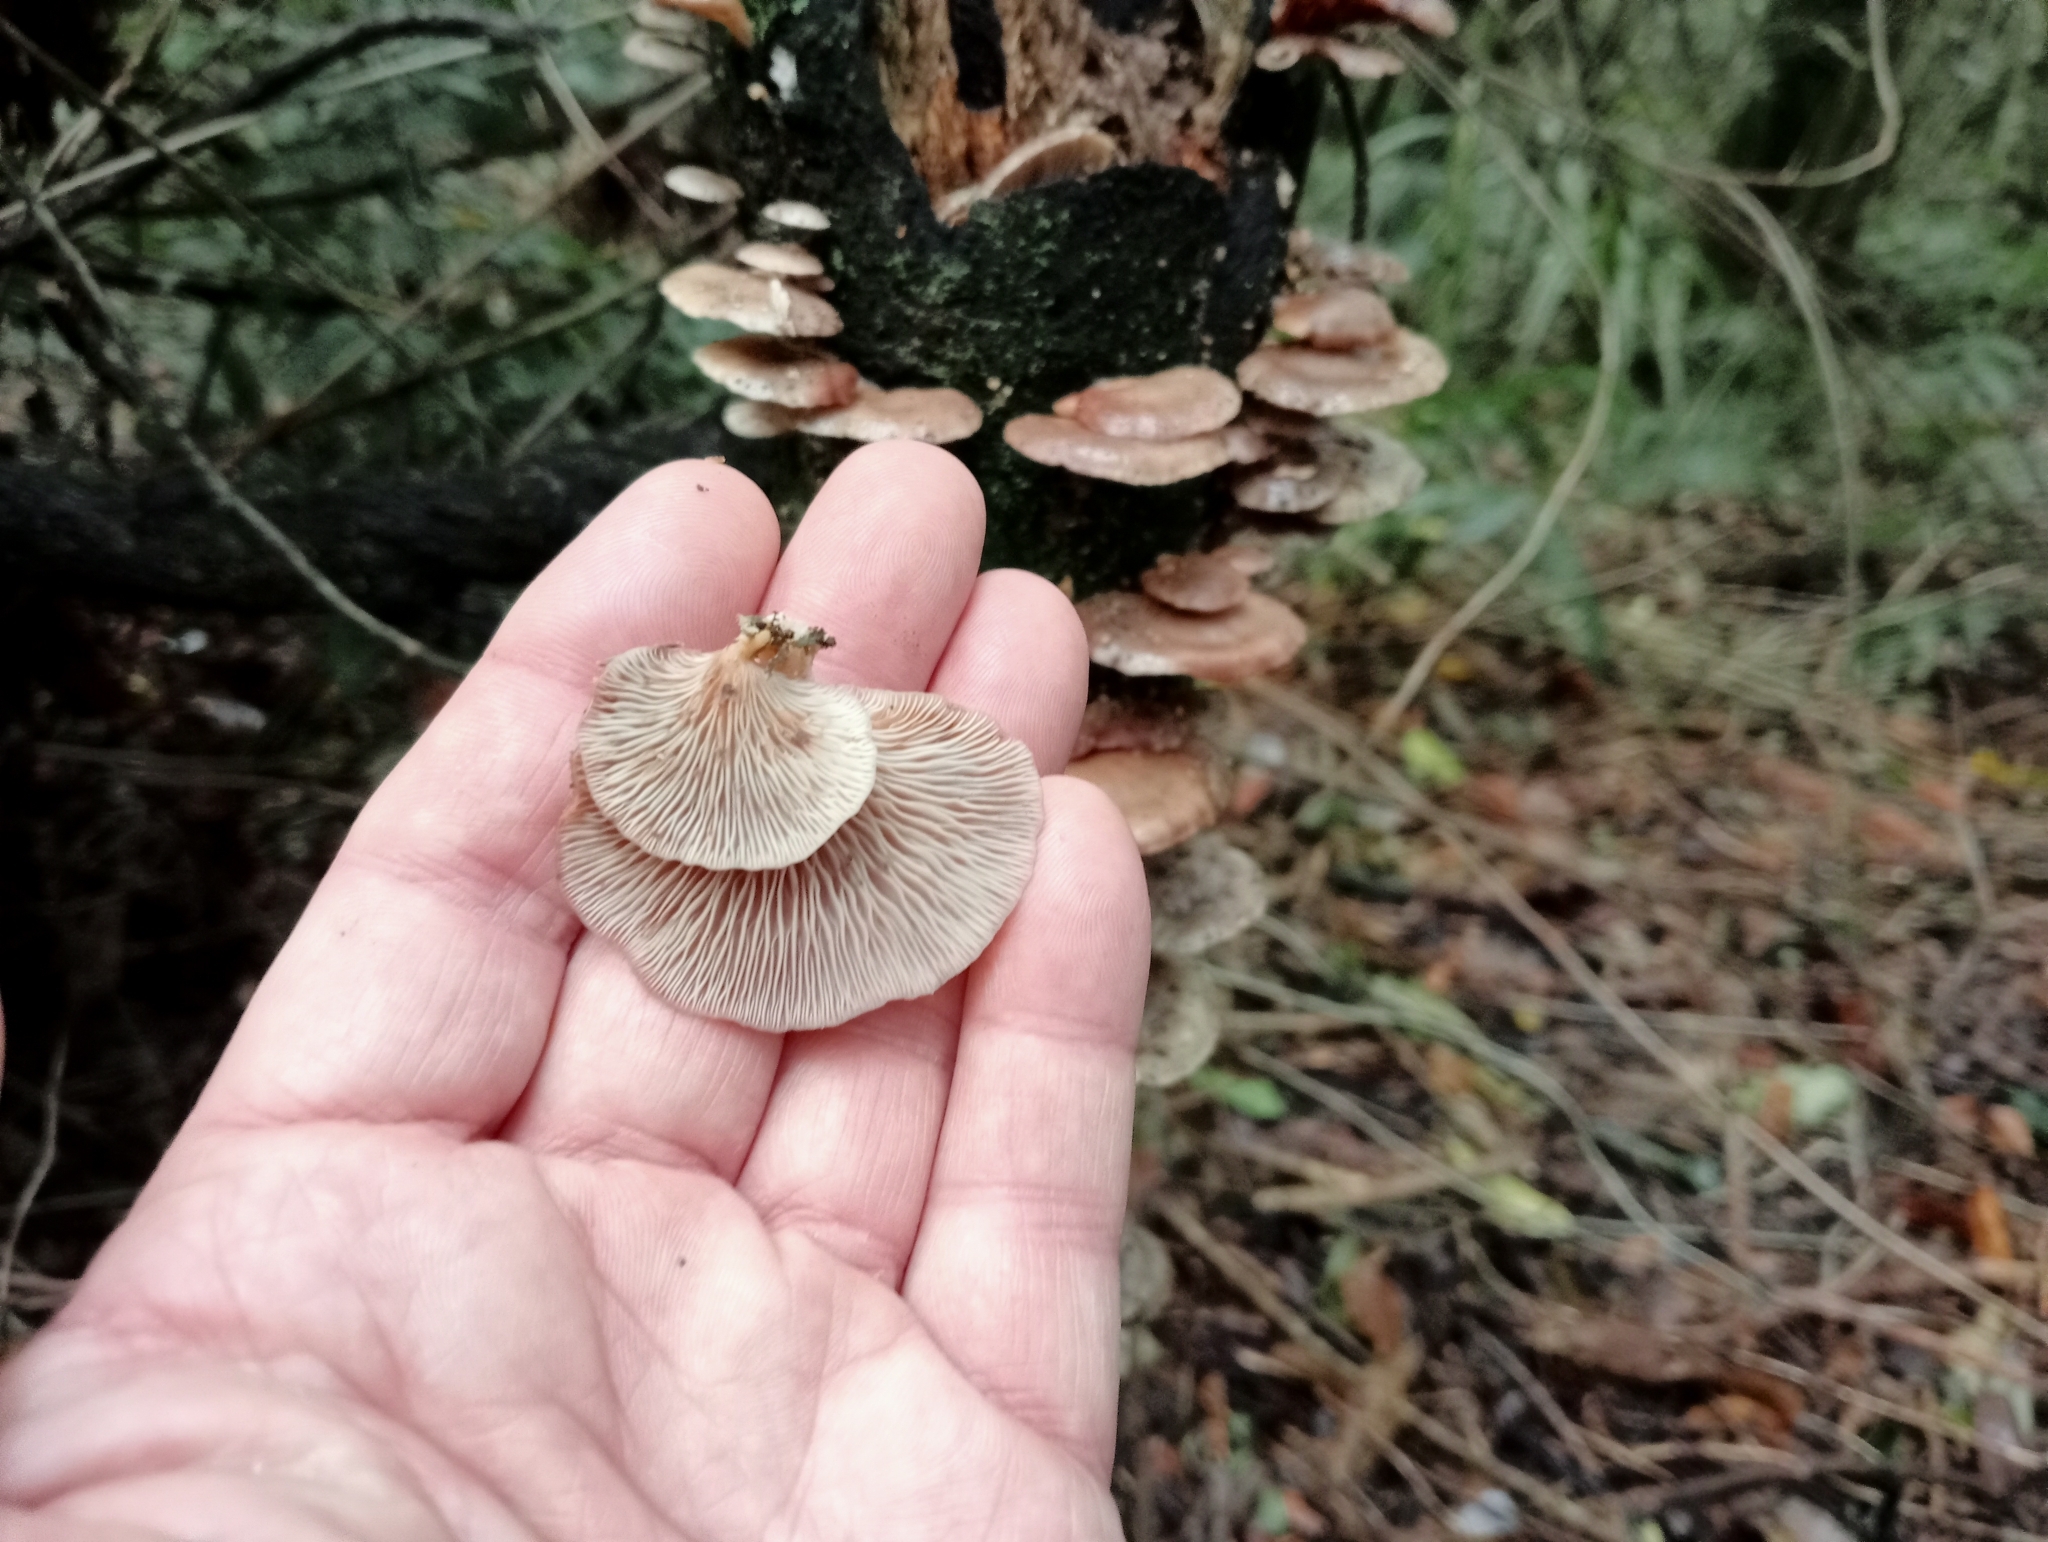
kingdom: Fungi
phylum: Basidiomycota
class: Agaricomycetes
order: Agaricales
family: Mycenaceae
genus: Panellus
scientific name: Panellus longinquus
